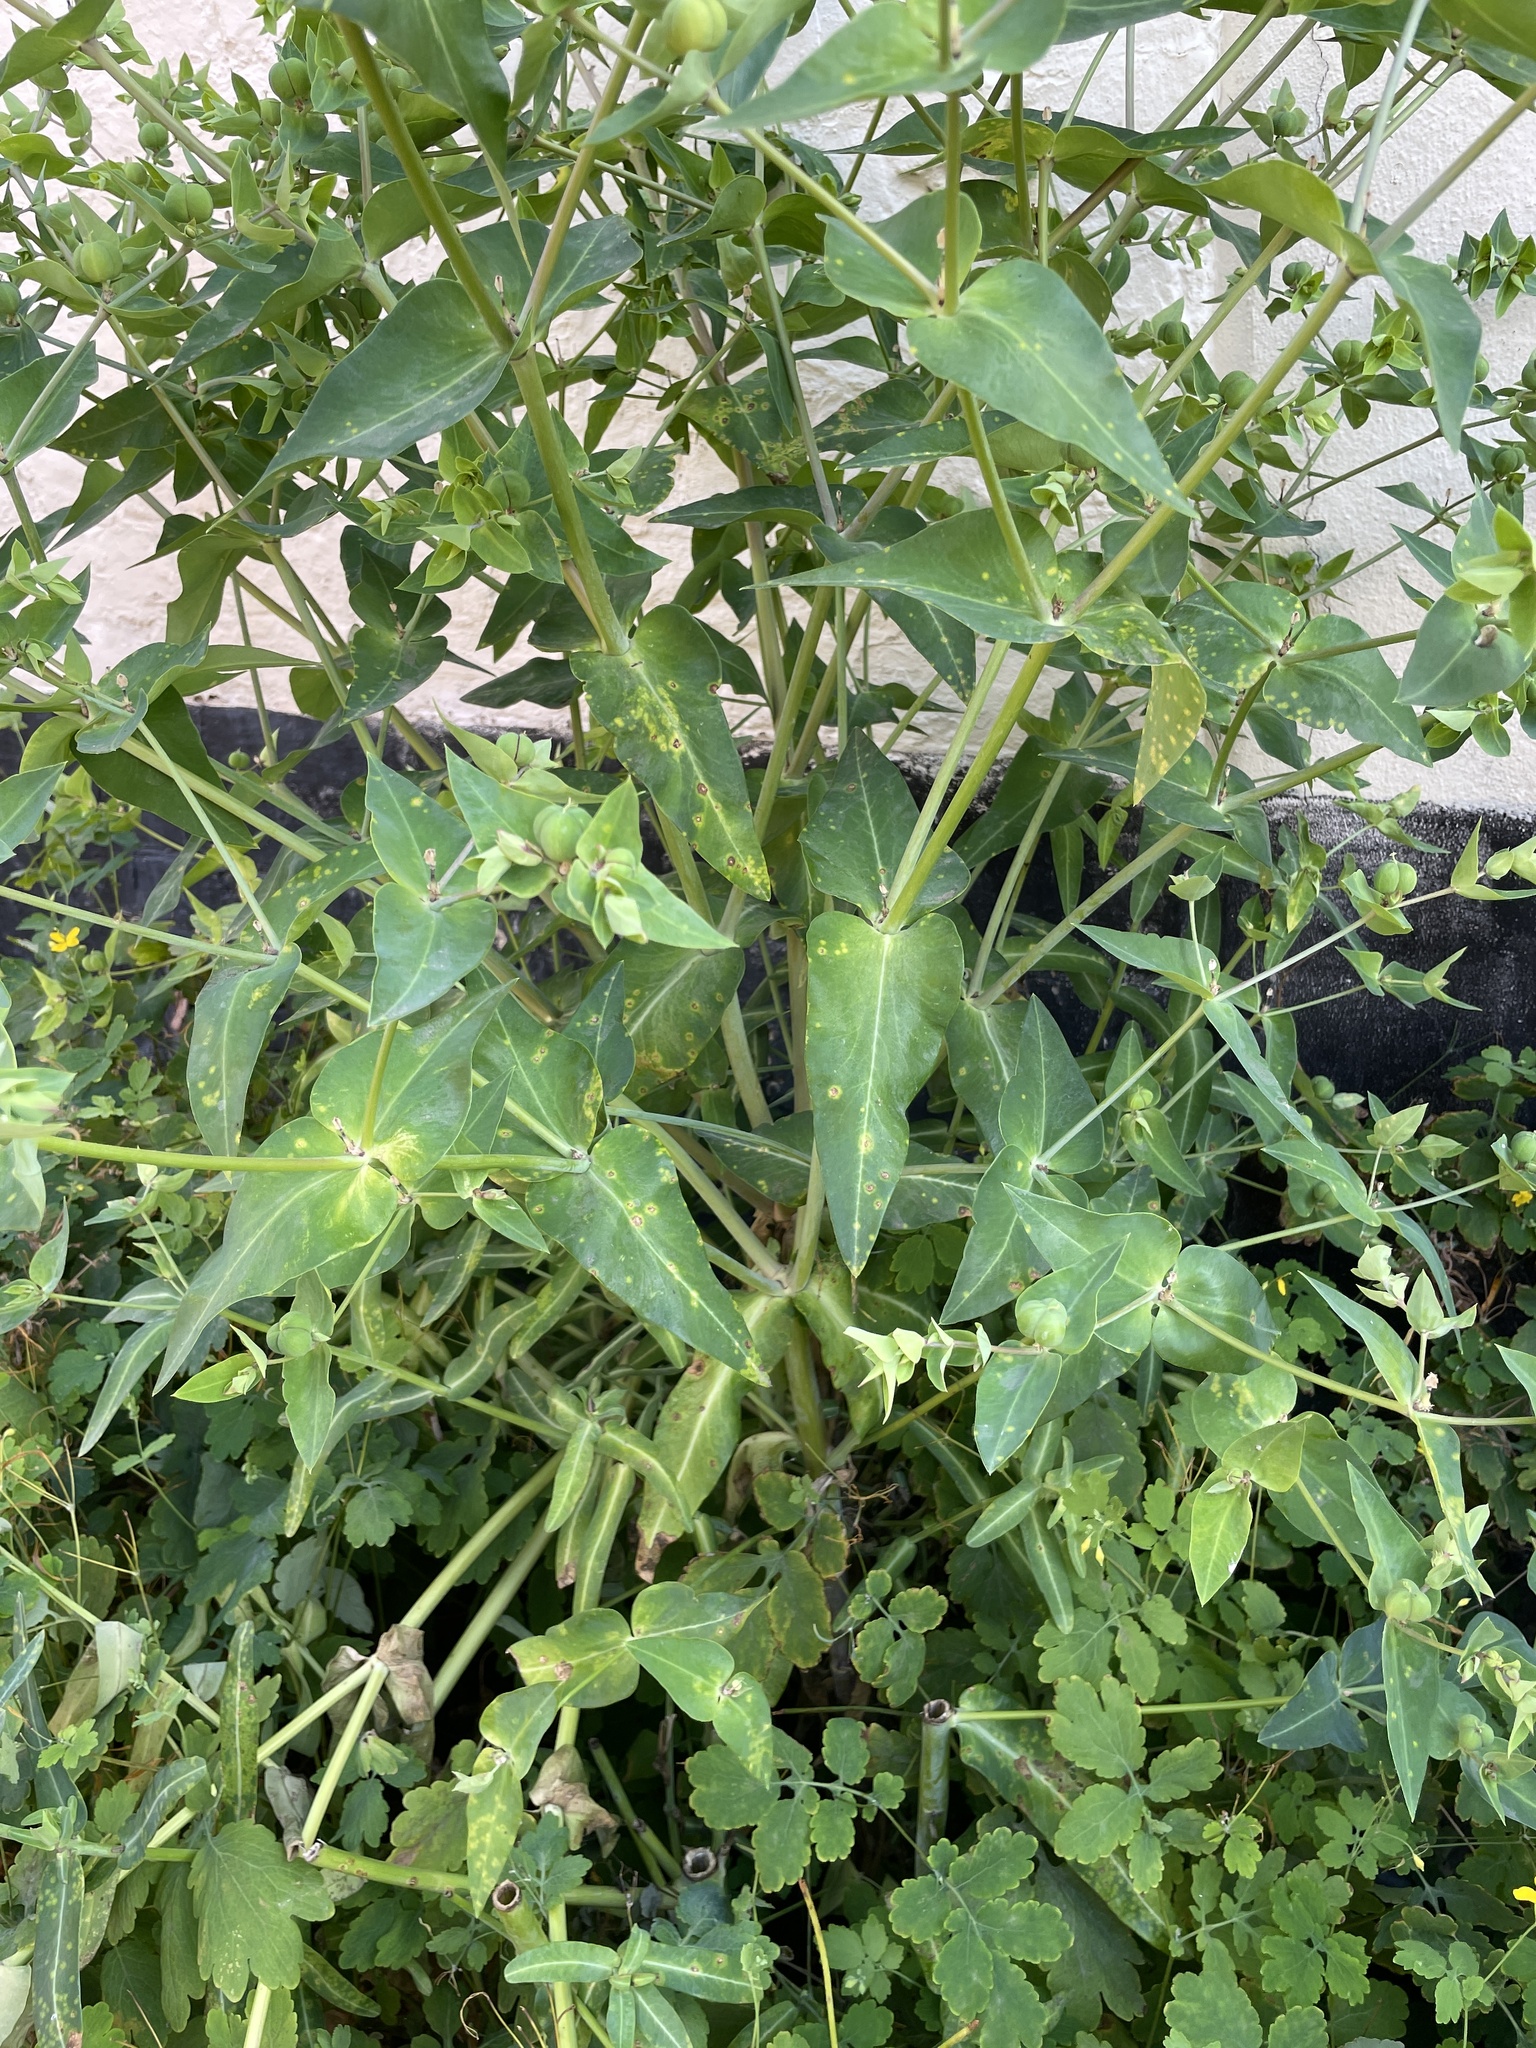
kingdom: Plantae
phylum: Tracheophyta
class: Magnoliopsida
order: Malpighiales
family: Euphorbiaceae
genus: Euphorbia
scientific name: Euphorbia lathyris
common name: Caper spurge
